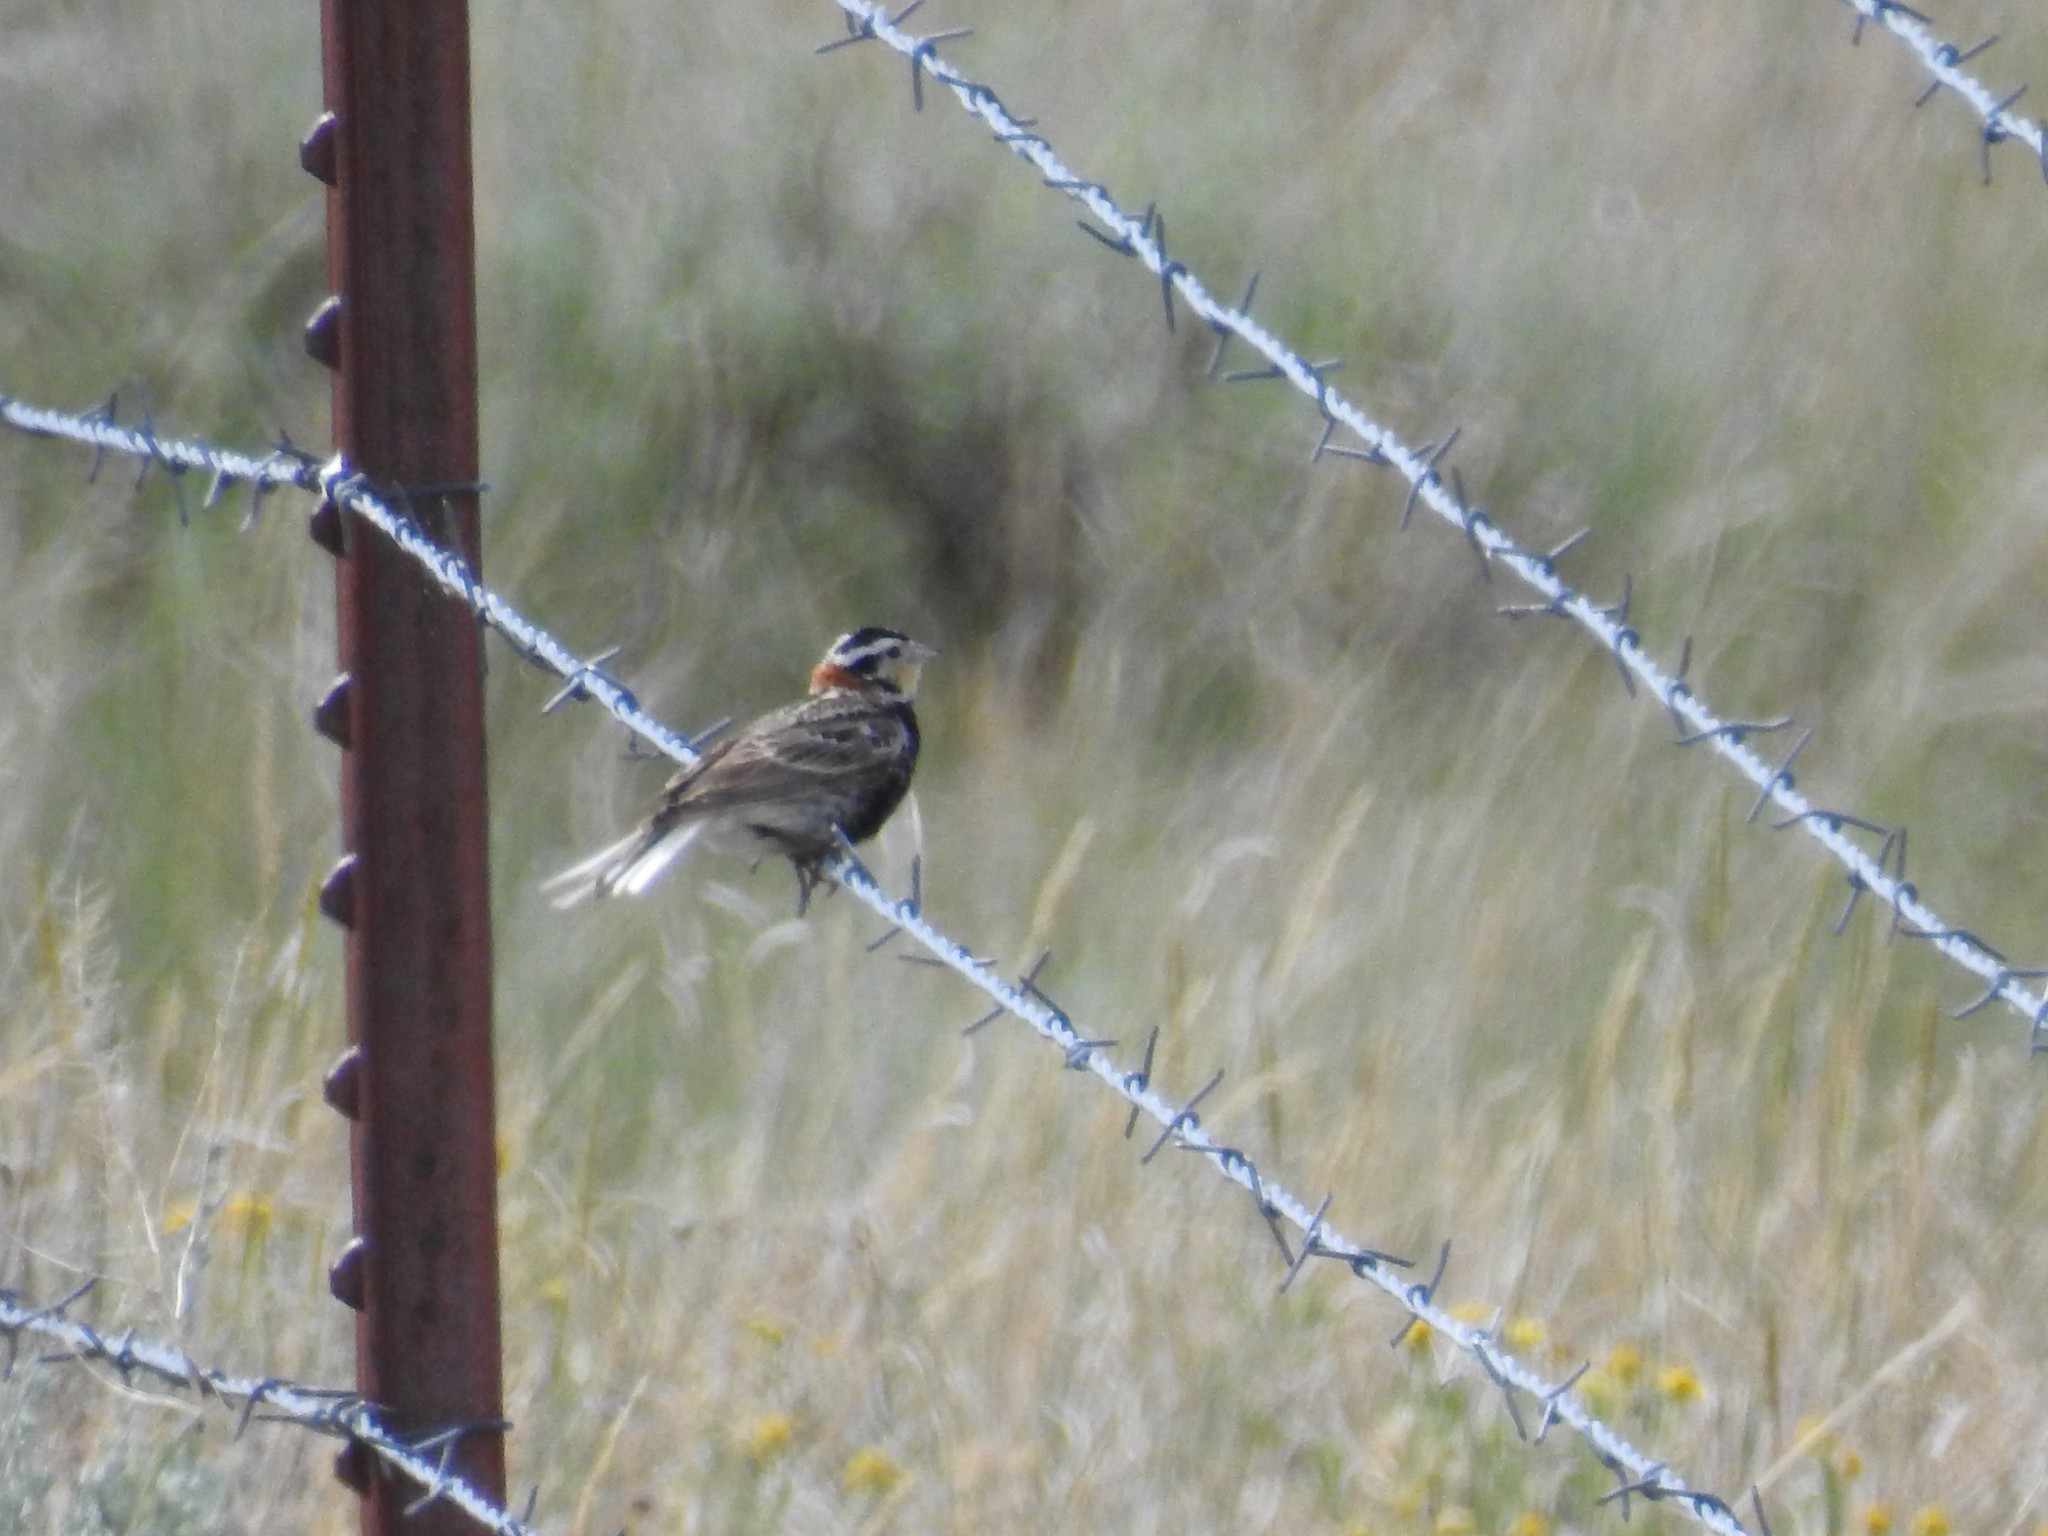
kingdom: Animalia
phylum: Chordata
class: Aves
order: Passeriformes
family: Calcariidae
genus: Calcarius
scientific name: Calcarius ornatus
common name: Chestnut-collared longspur
